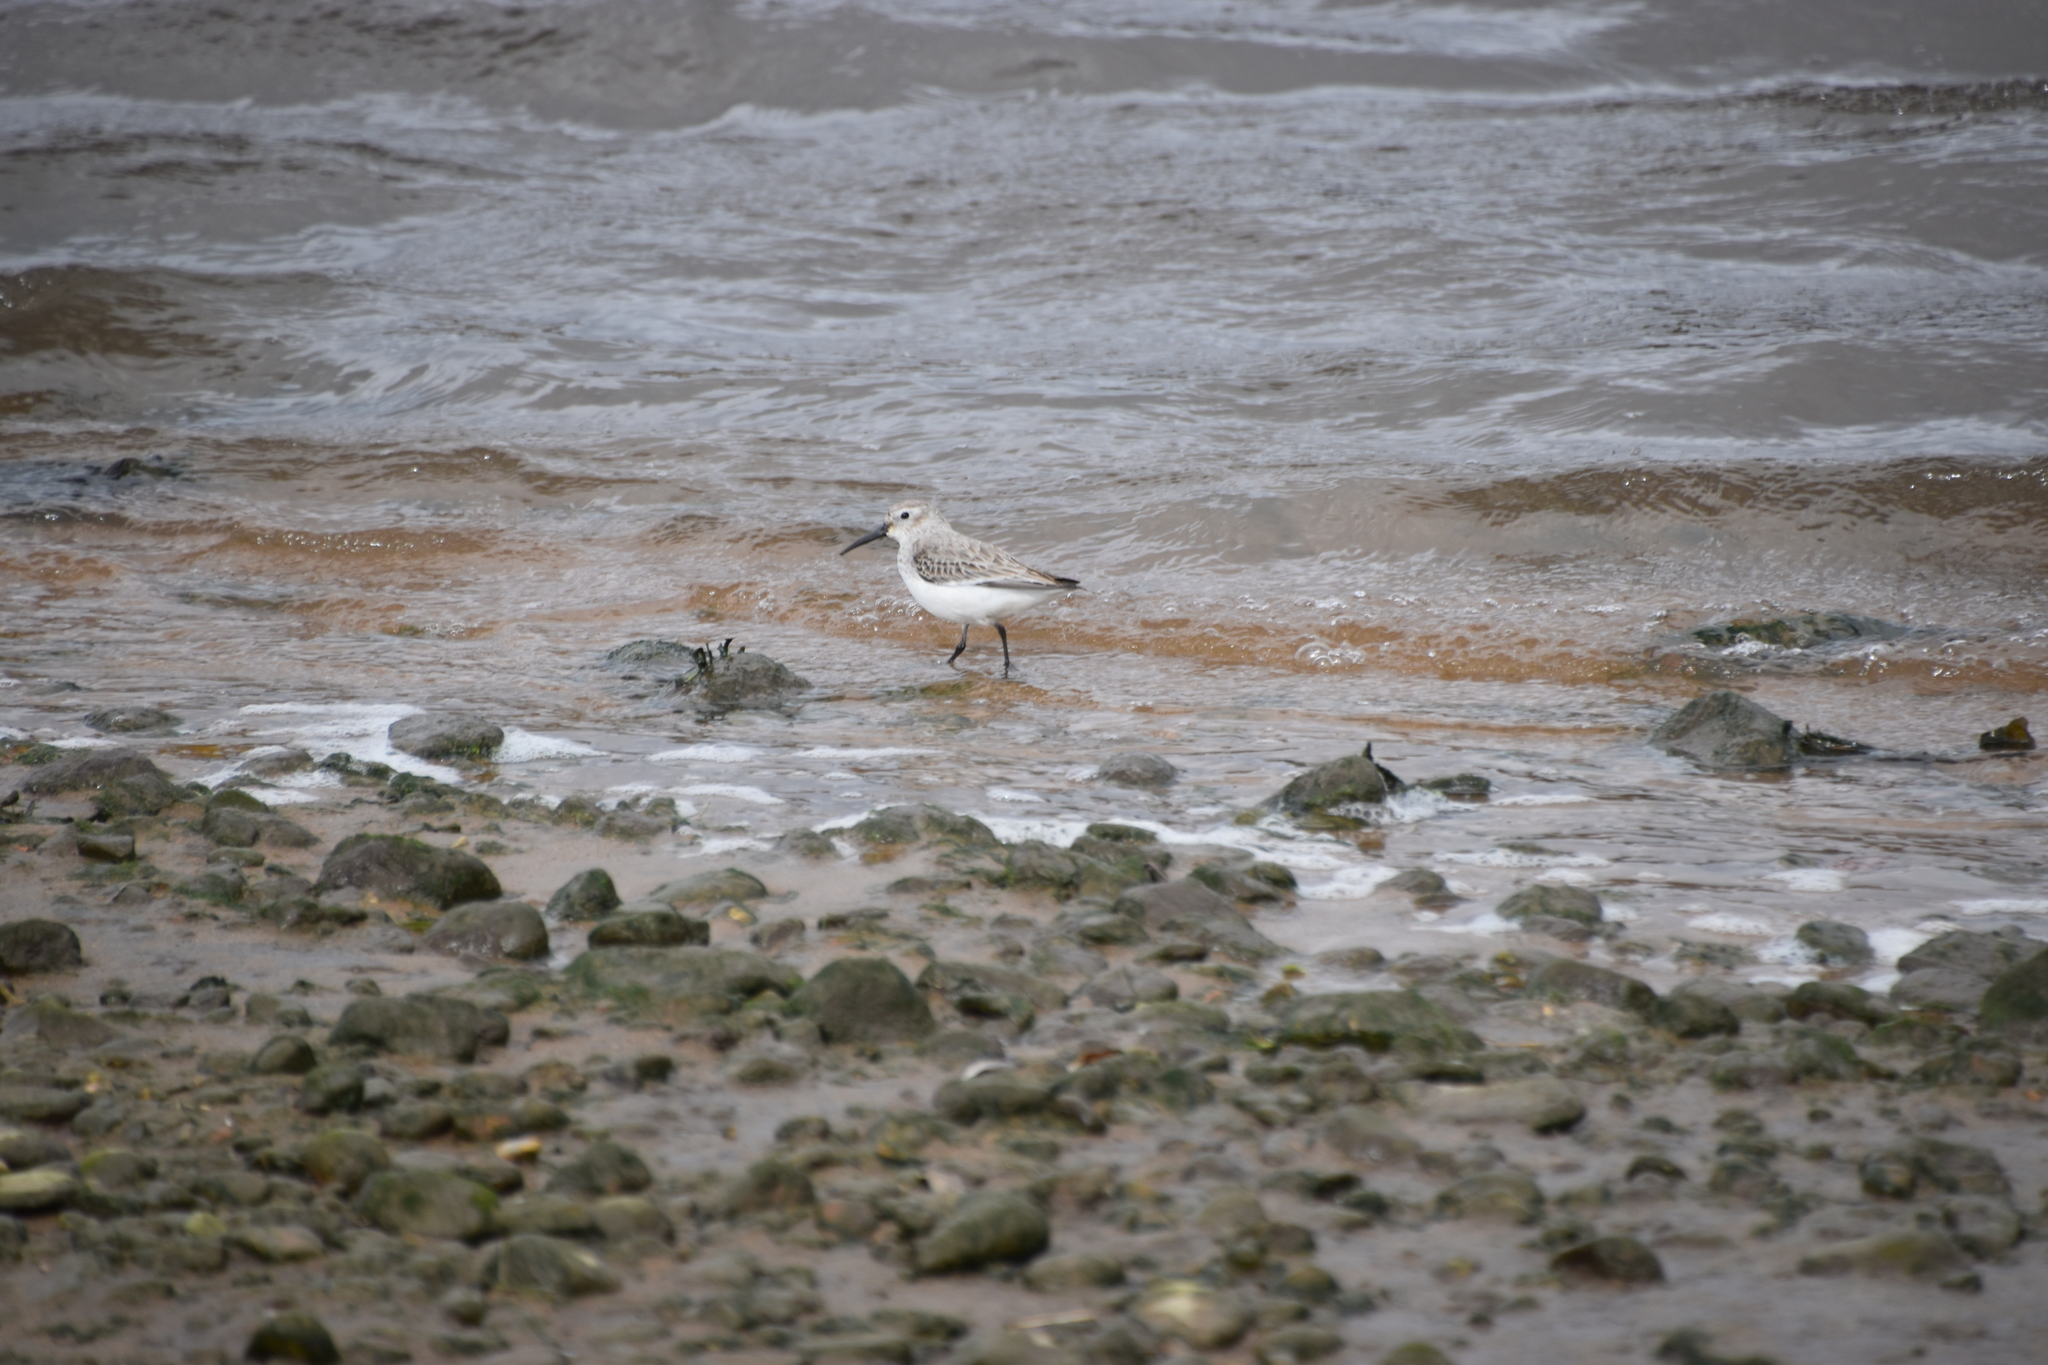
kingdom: Animalia
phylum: Chordata
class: Aves
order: Charadriiformes
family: Scolopacidae
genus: Calidris
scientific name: Calidris alpina
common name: Dunlin
